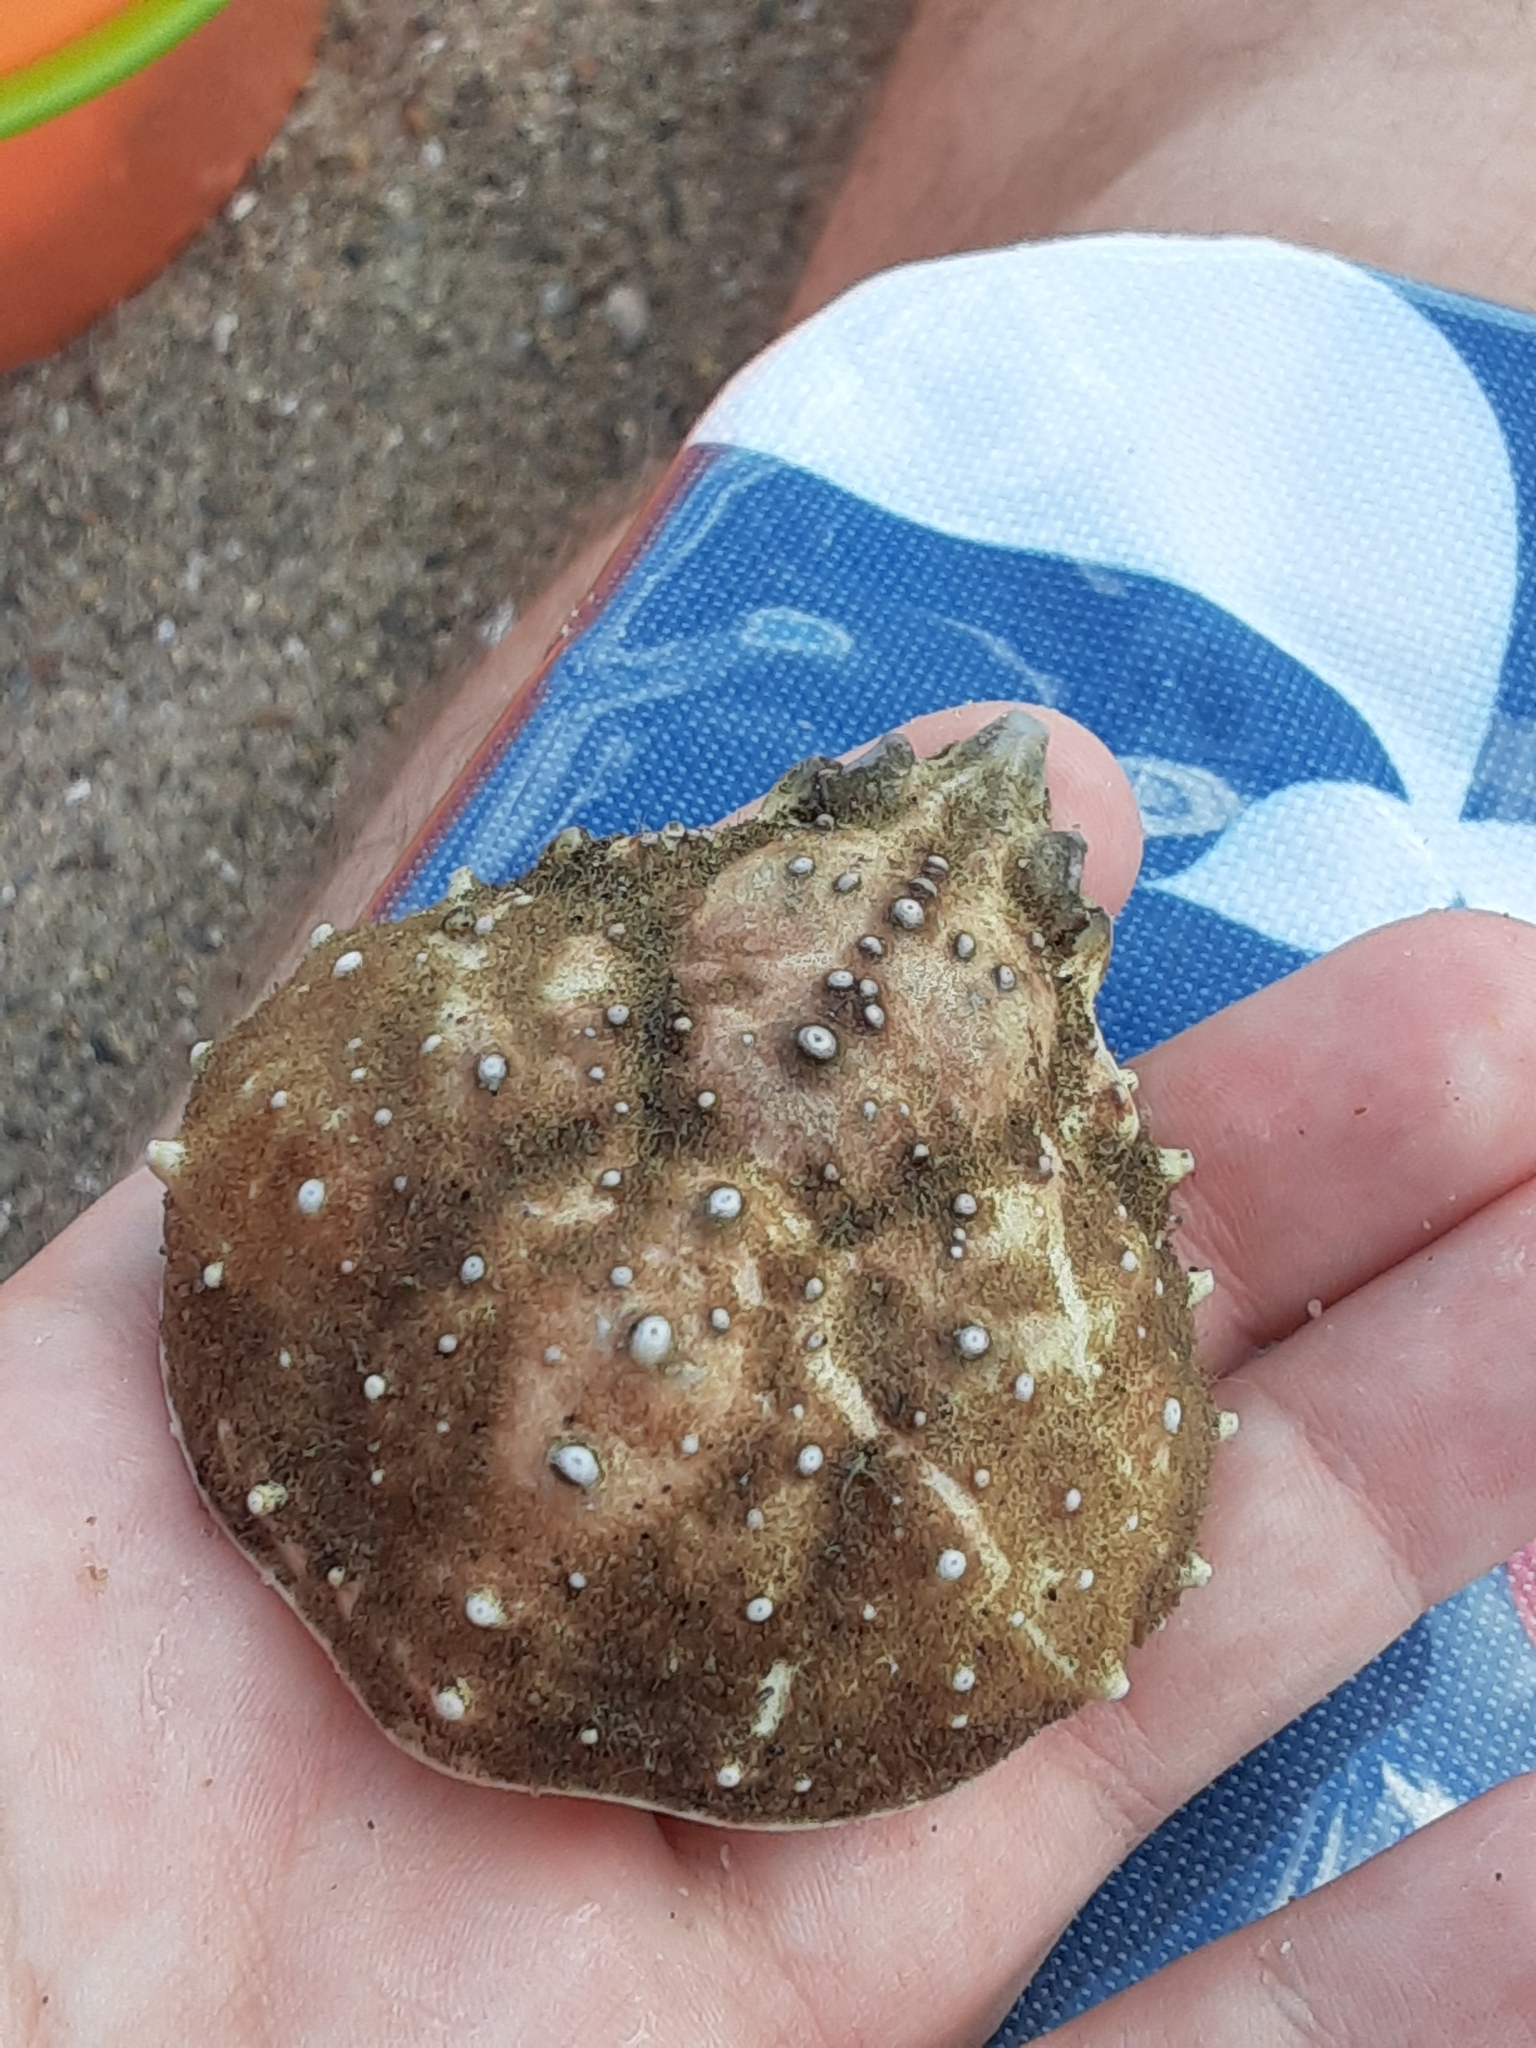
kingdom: Animalia
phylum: Arthropoda
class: Malacostraca
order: Decapoda
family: Epialtidae
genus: Libinia
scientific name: Libinia emarginata
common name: Common spider crab
